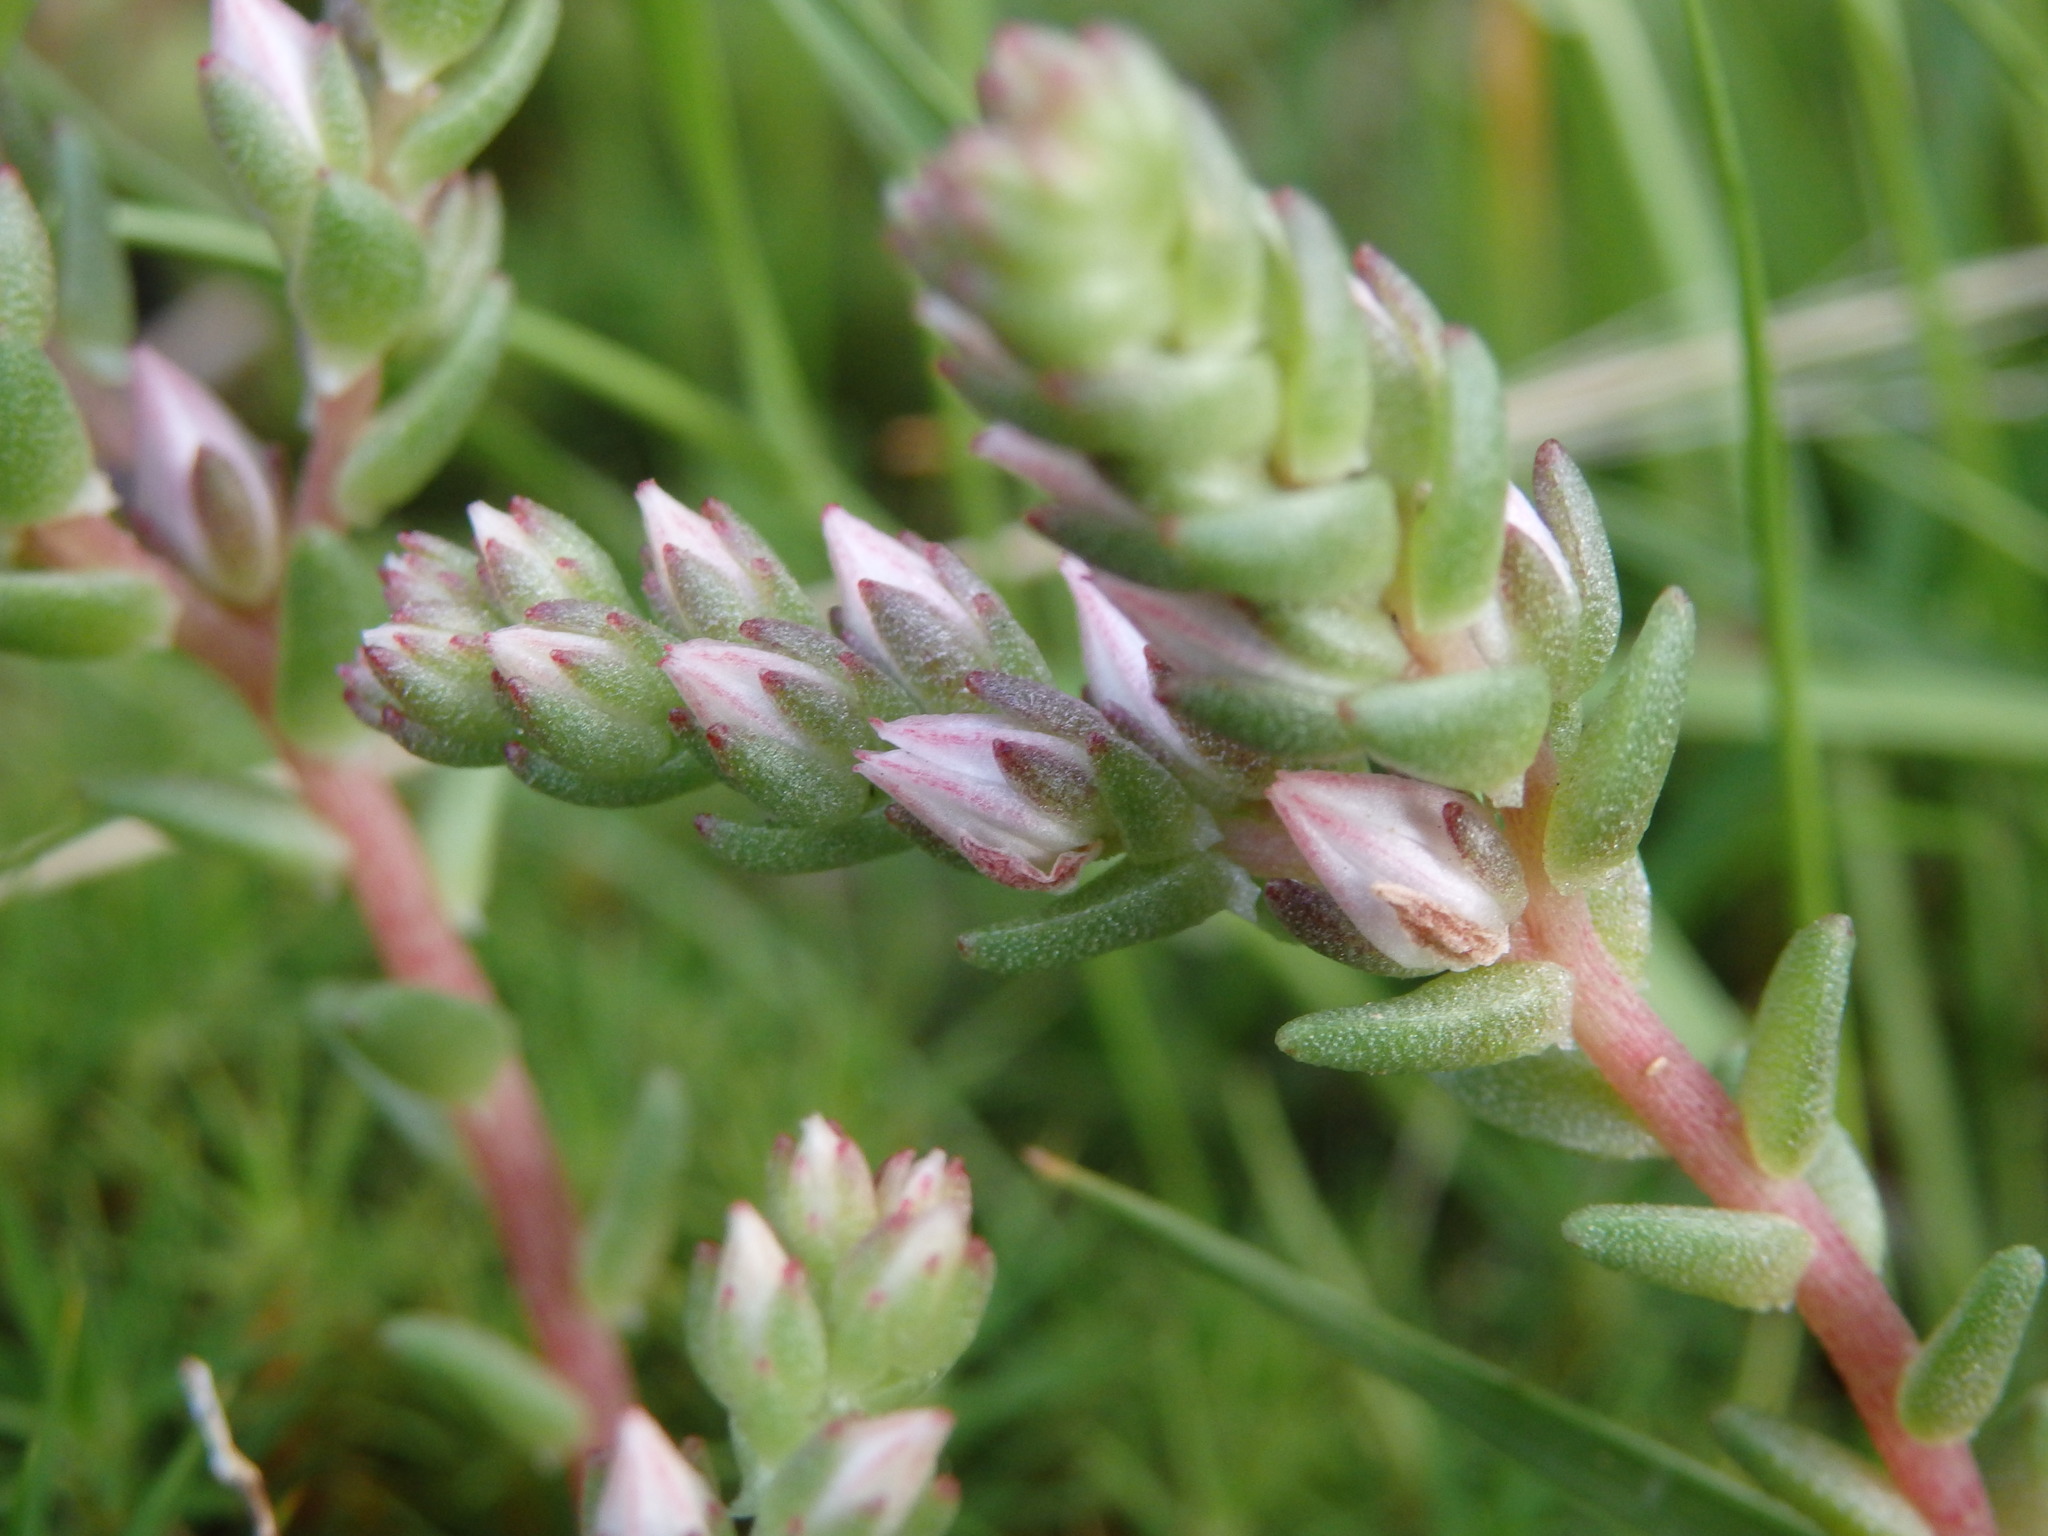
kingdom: Plantae
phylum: Tracheophyta
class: Magnoliopsida
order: Saxifragales
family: Crassulaceae
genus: Sedum
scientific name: Sedum anglicum
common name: English stonecrop
